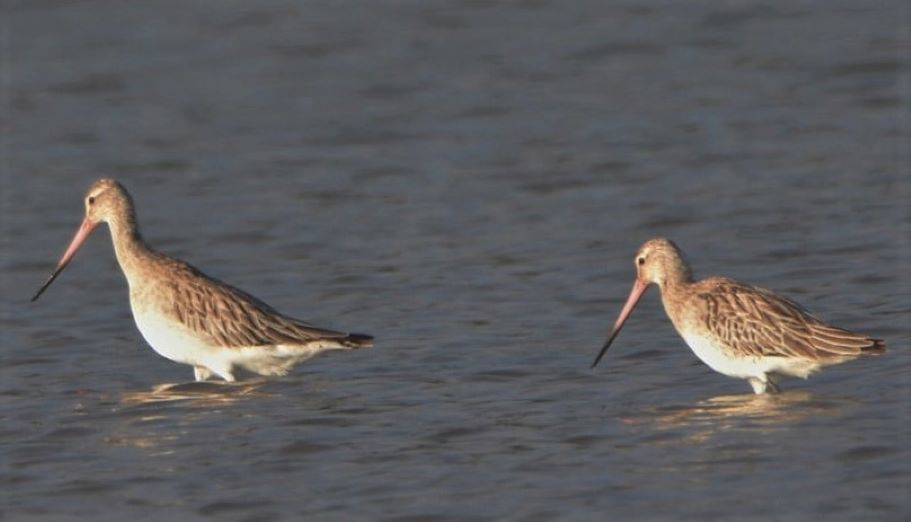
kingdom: Animalia
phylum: Chordata
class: Aves
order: Charadriiformes
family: Scolopacidae
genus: Limosa
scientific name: Limosa lapponica
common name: Bar-tailed godwit
